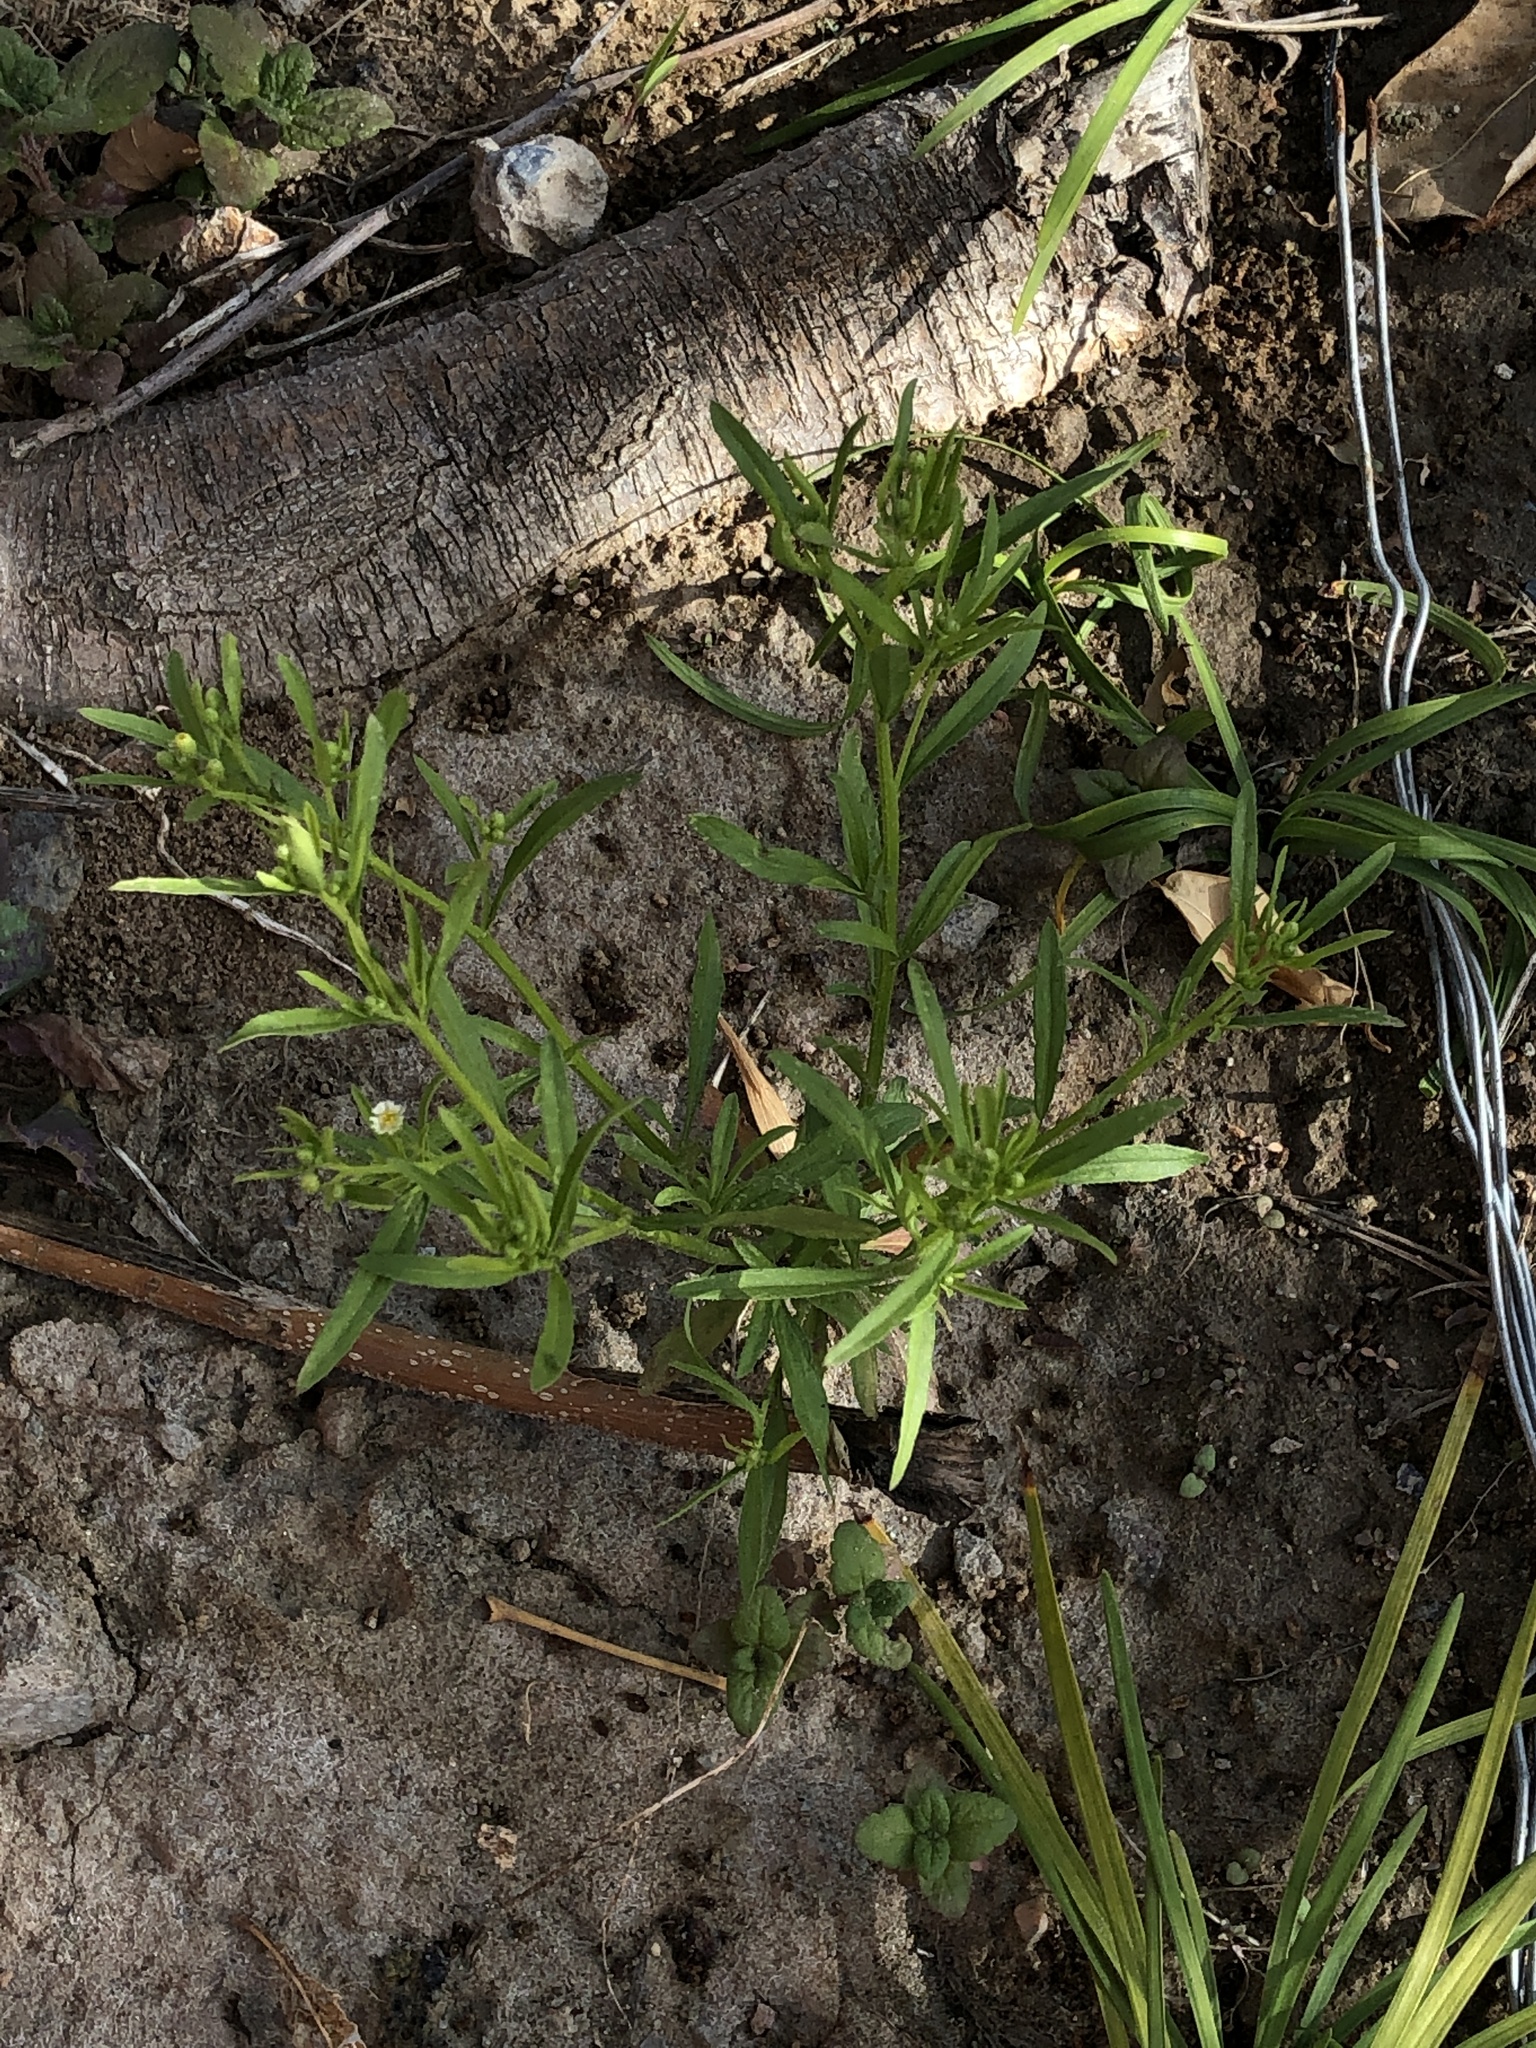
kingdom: Plantae
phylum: Tracheophyta
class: Magnoliopsida
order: Asterales
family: Asteraceae
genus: Eclipta
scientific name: Eclipta prostrata
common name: False daisy
